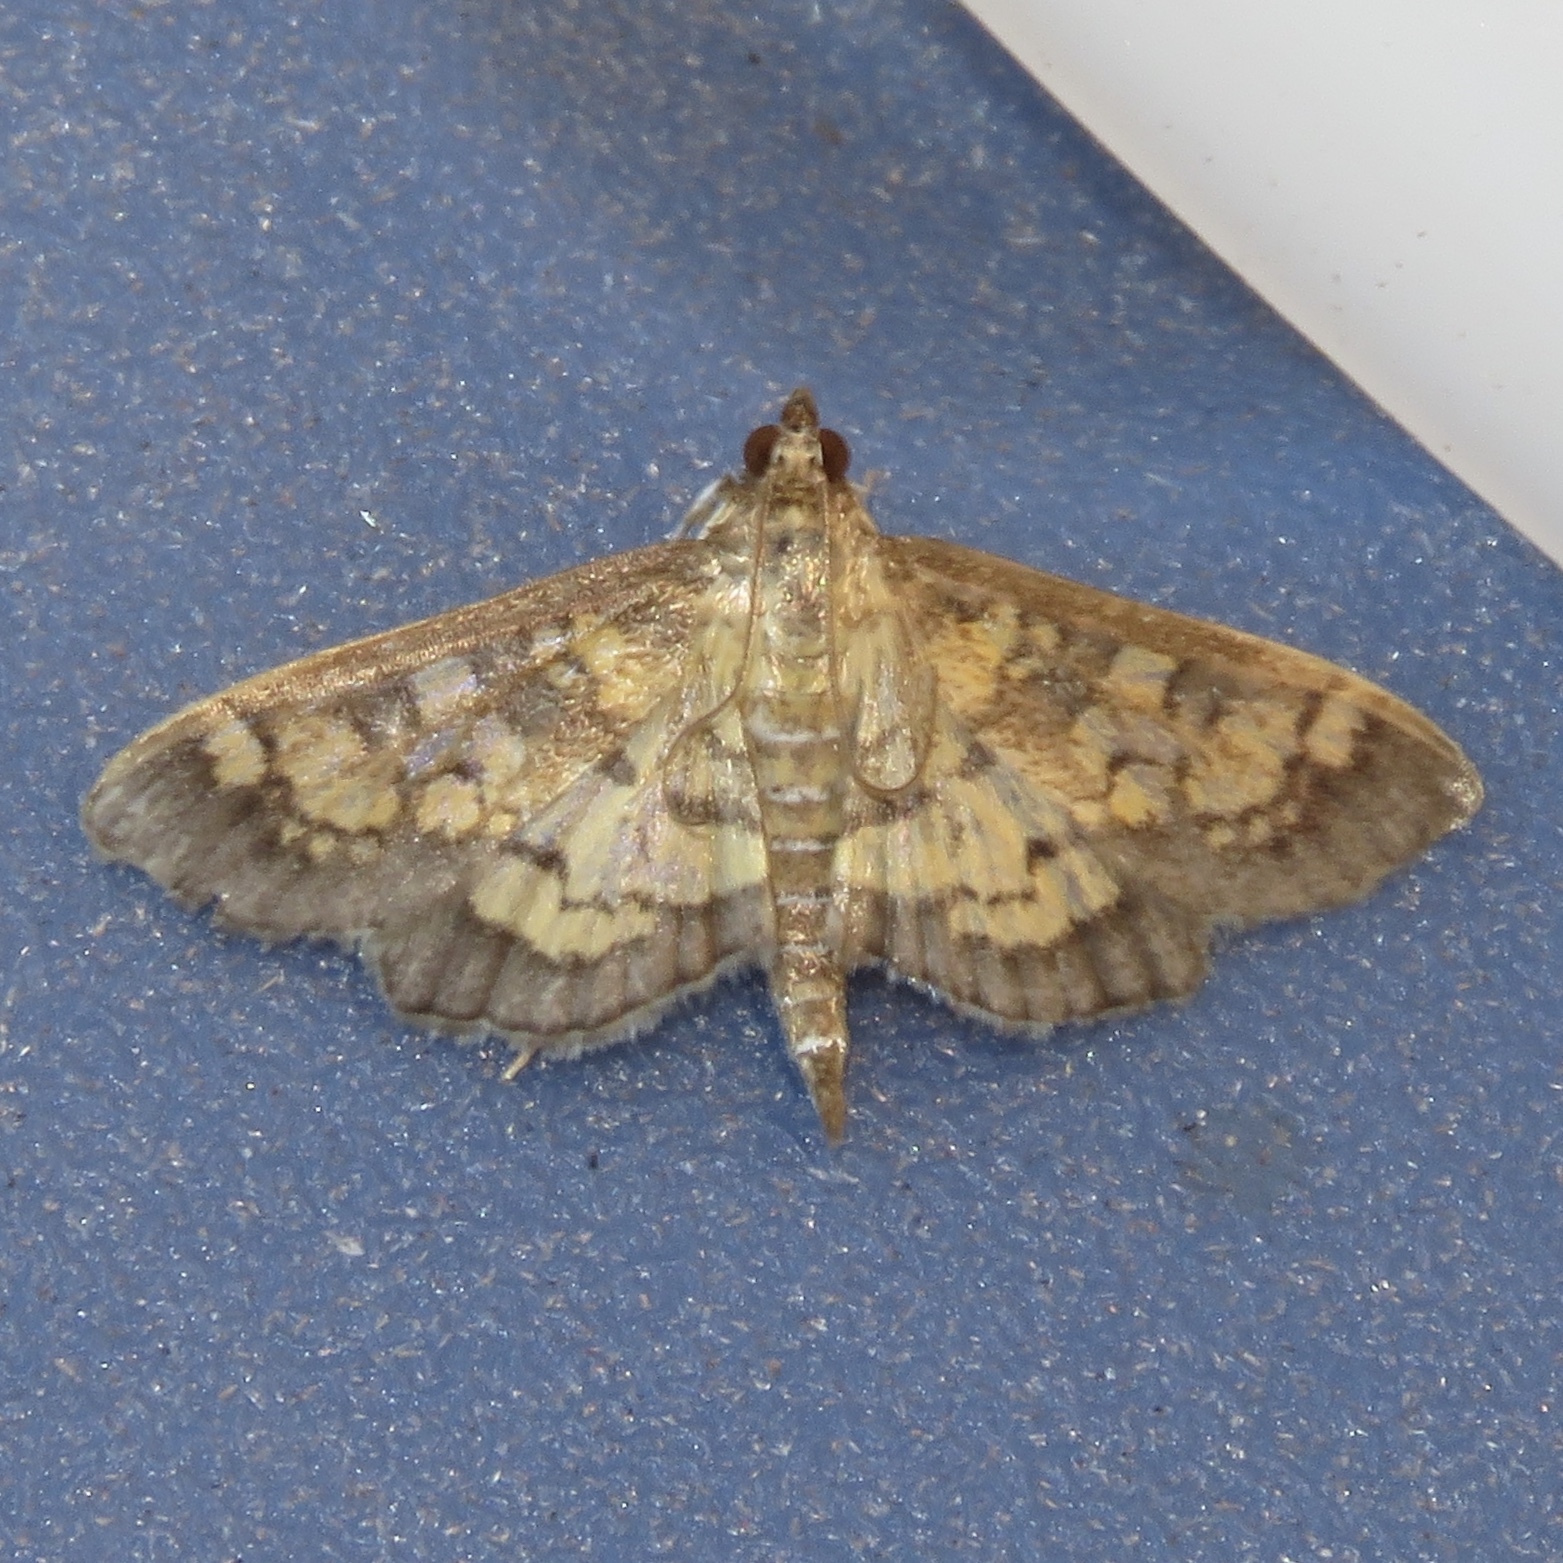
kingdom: Animalia
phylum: Arthropoda
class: Insecta
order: Lepidoptera
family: Crambidae
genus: Epipagis
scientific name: Epipagis adipaloides
